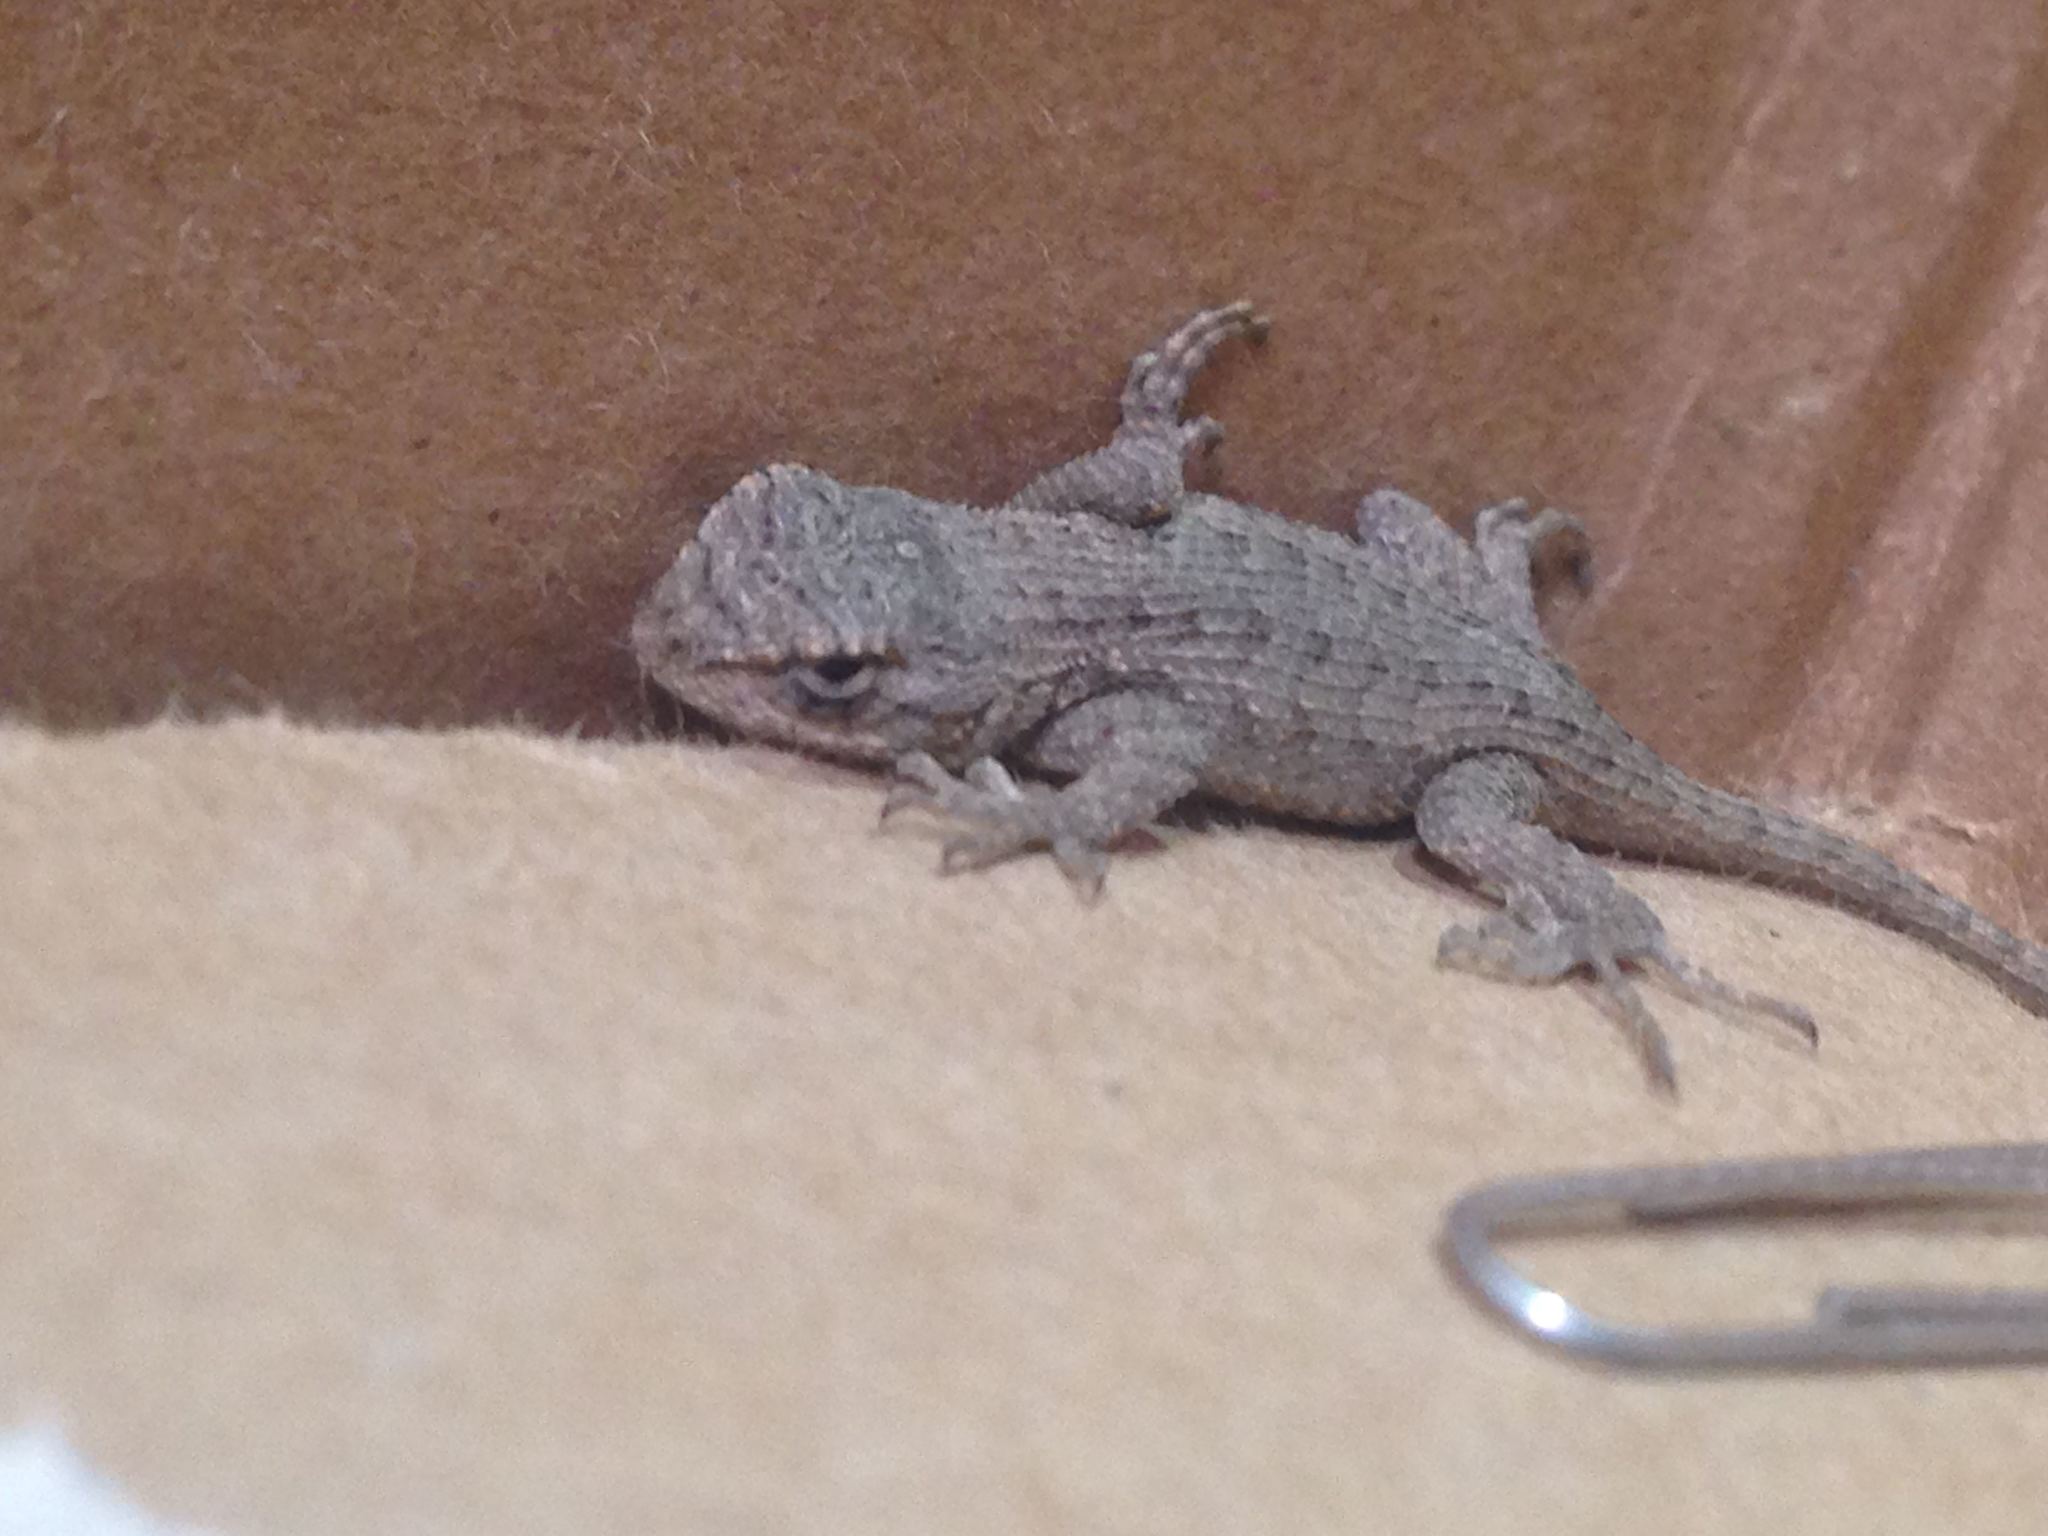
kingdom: Animalia
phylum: Chordata
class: Squamata
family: Phrynosomatidae
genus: Sceloporus
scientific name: Sceloporus occidentalis
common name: Western fence lizard
